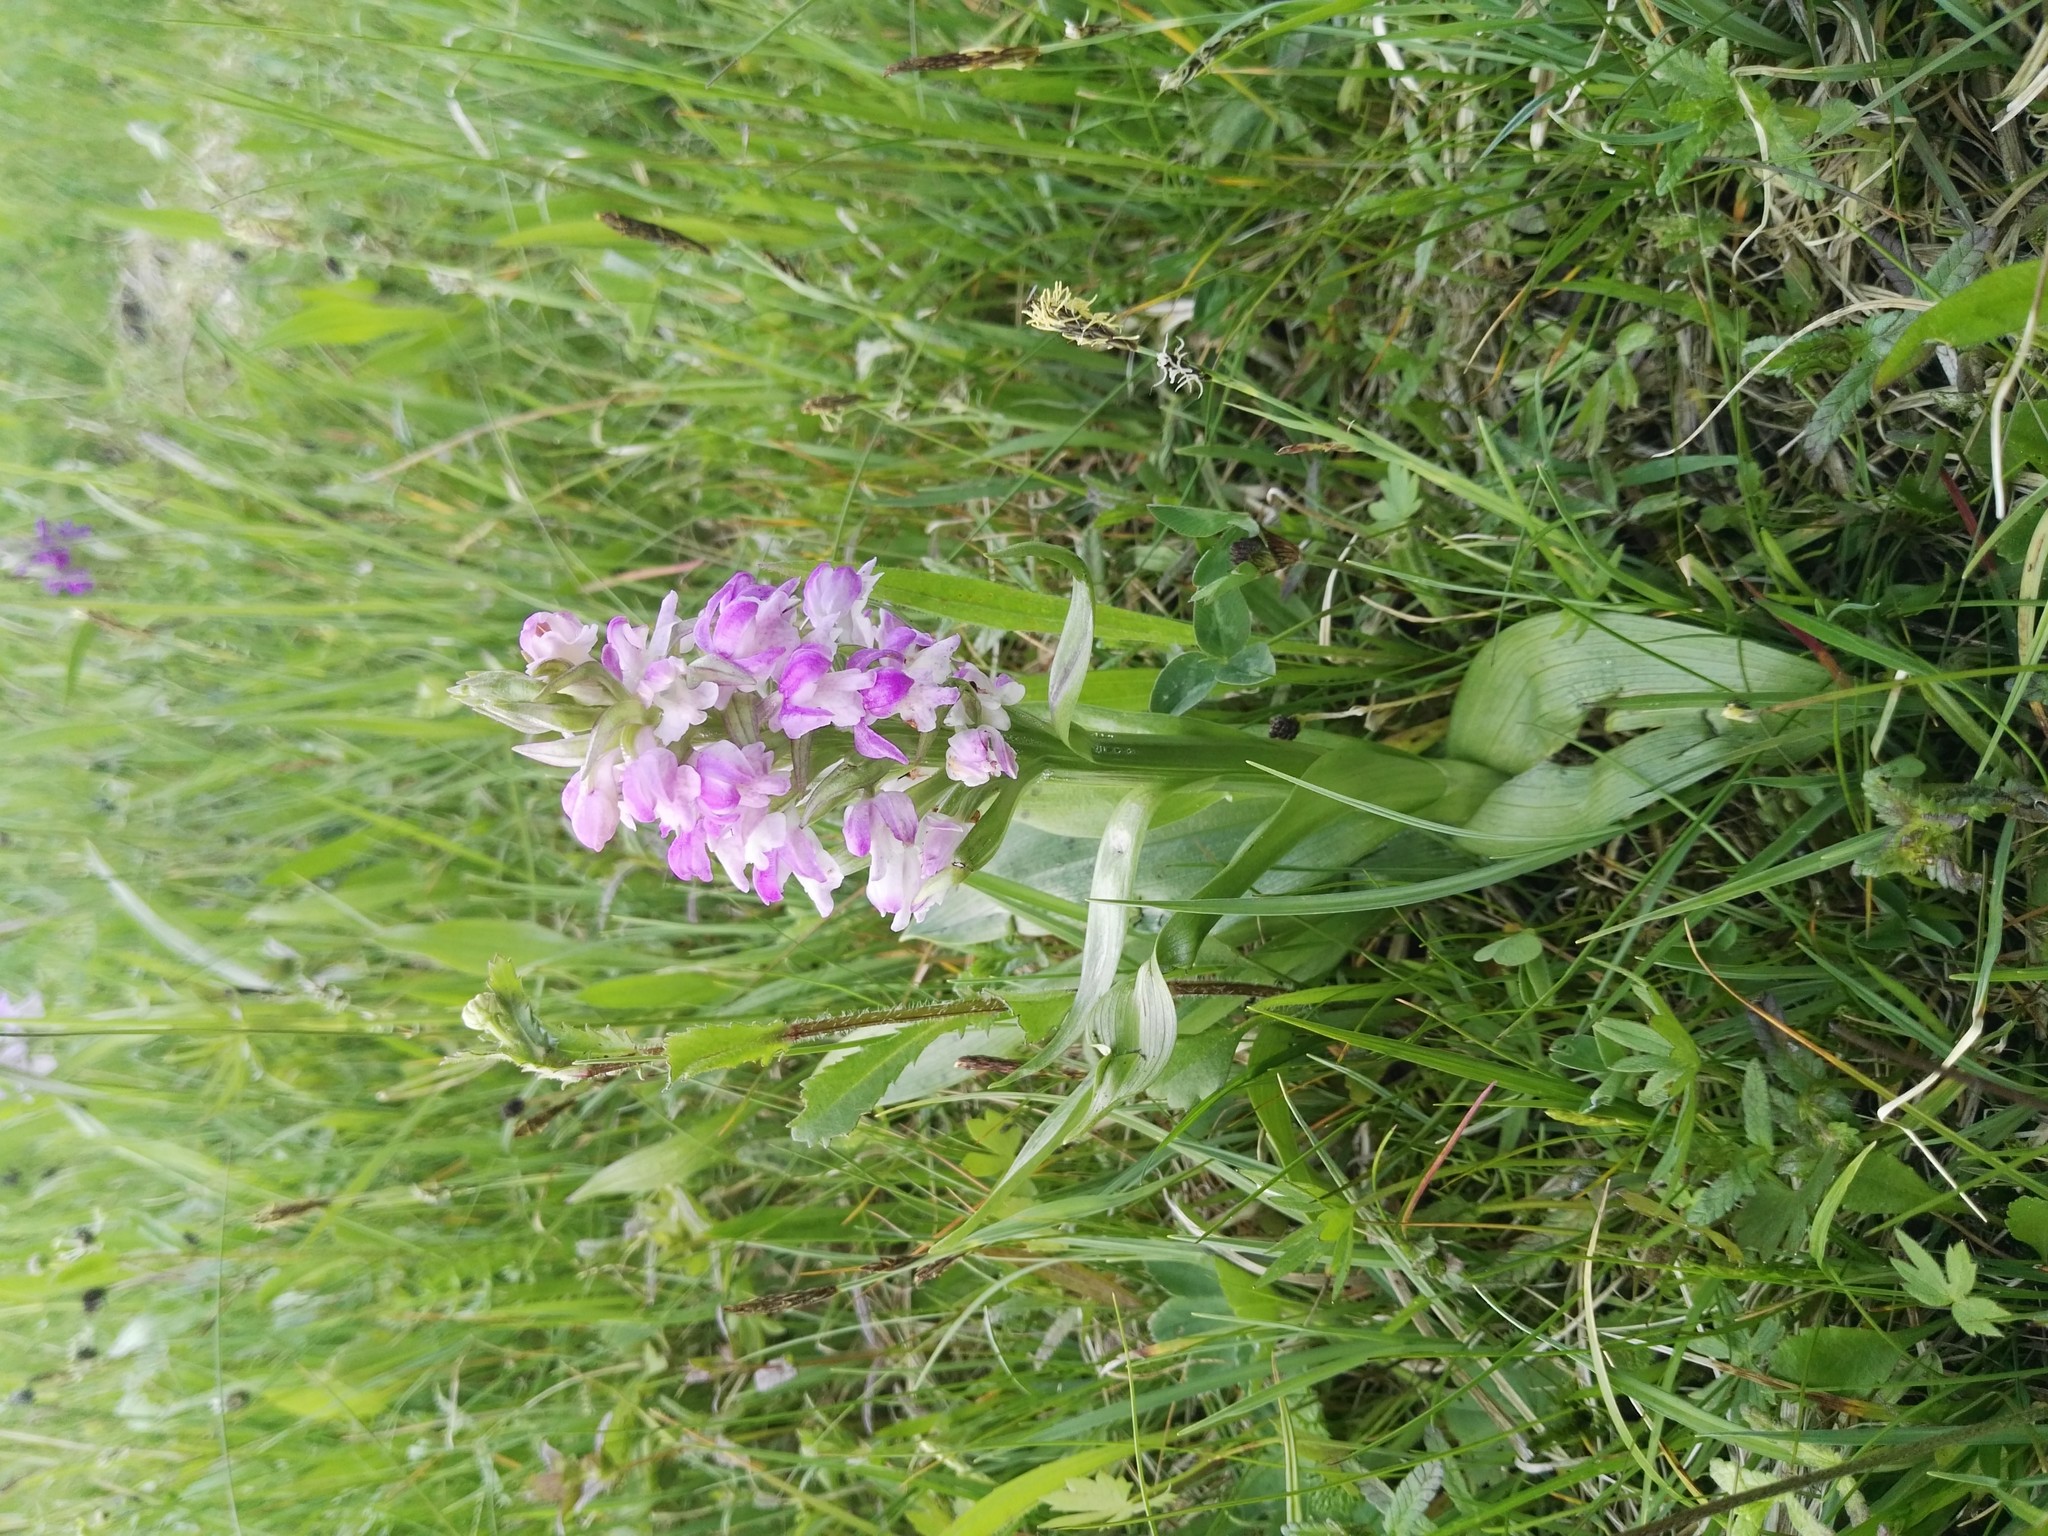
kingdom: Plantae
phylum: Tracheophyta
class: Liliopsida
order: Asparagales
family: Orchidaceae
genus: Dactylorhiza
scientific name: Dactylorhiza majalis
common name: Marsh orchid
